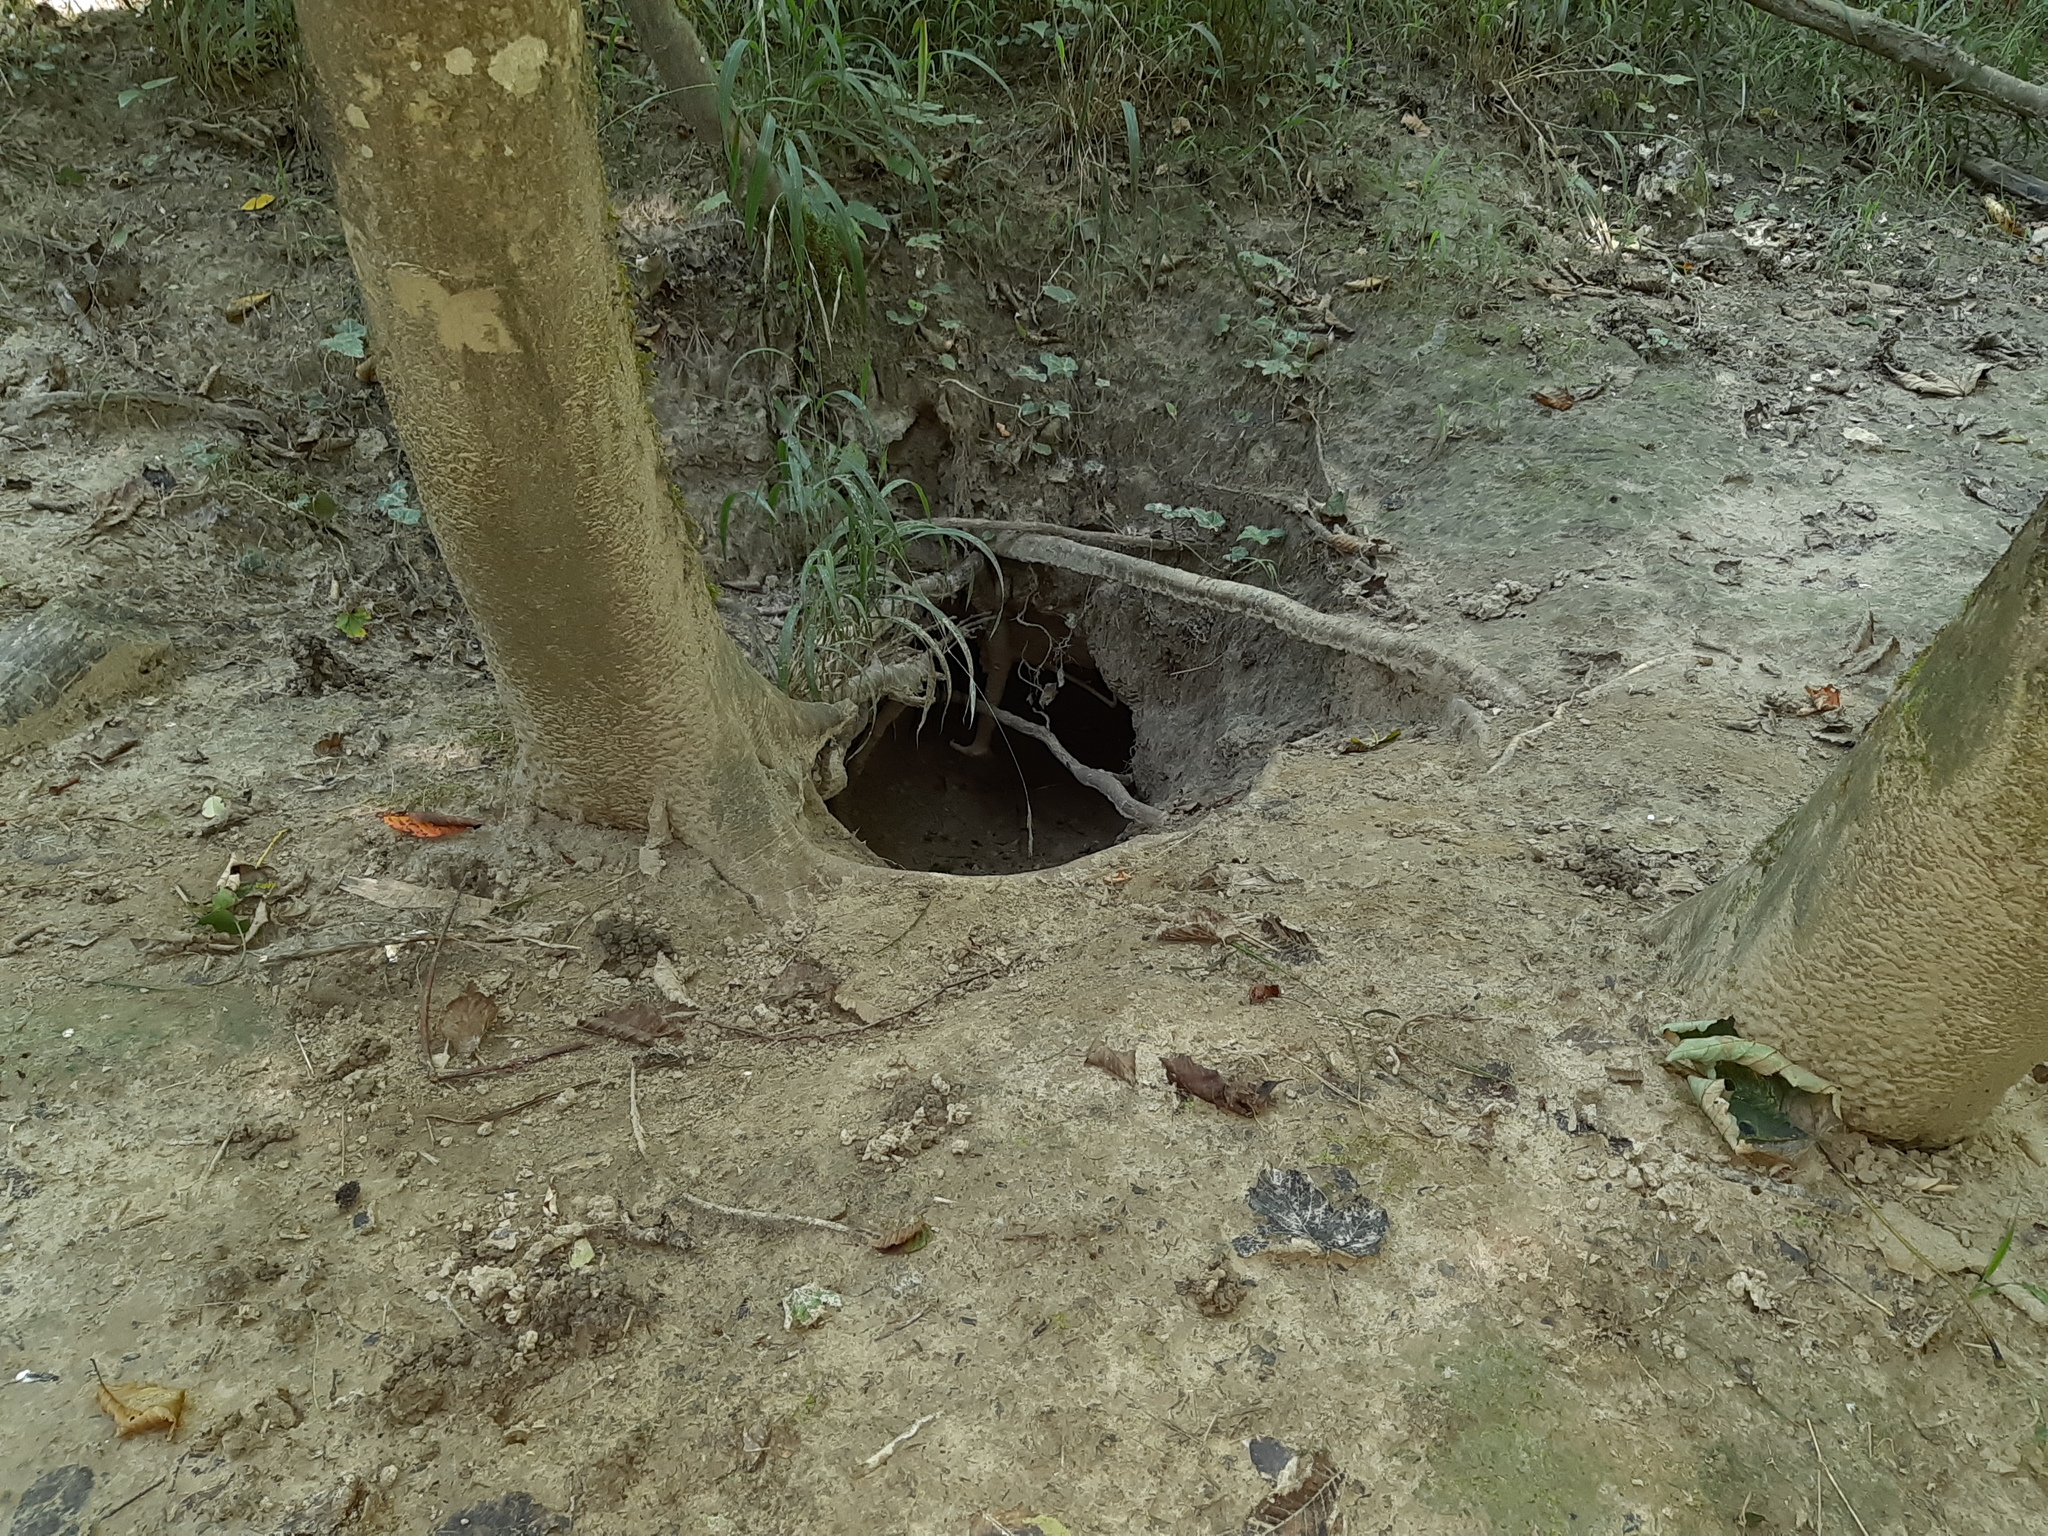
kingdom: Animalia
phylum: Chordata
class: Mammalia
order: Carnivora
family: Mustelidae
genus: Meles
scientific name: Meles meles
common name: Eurasian badger
